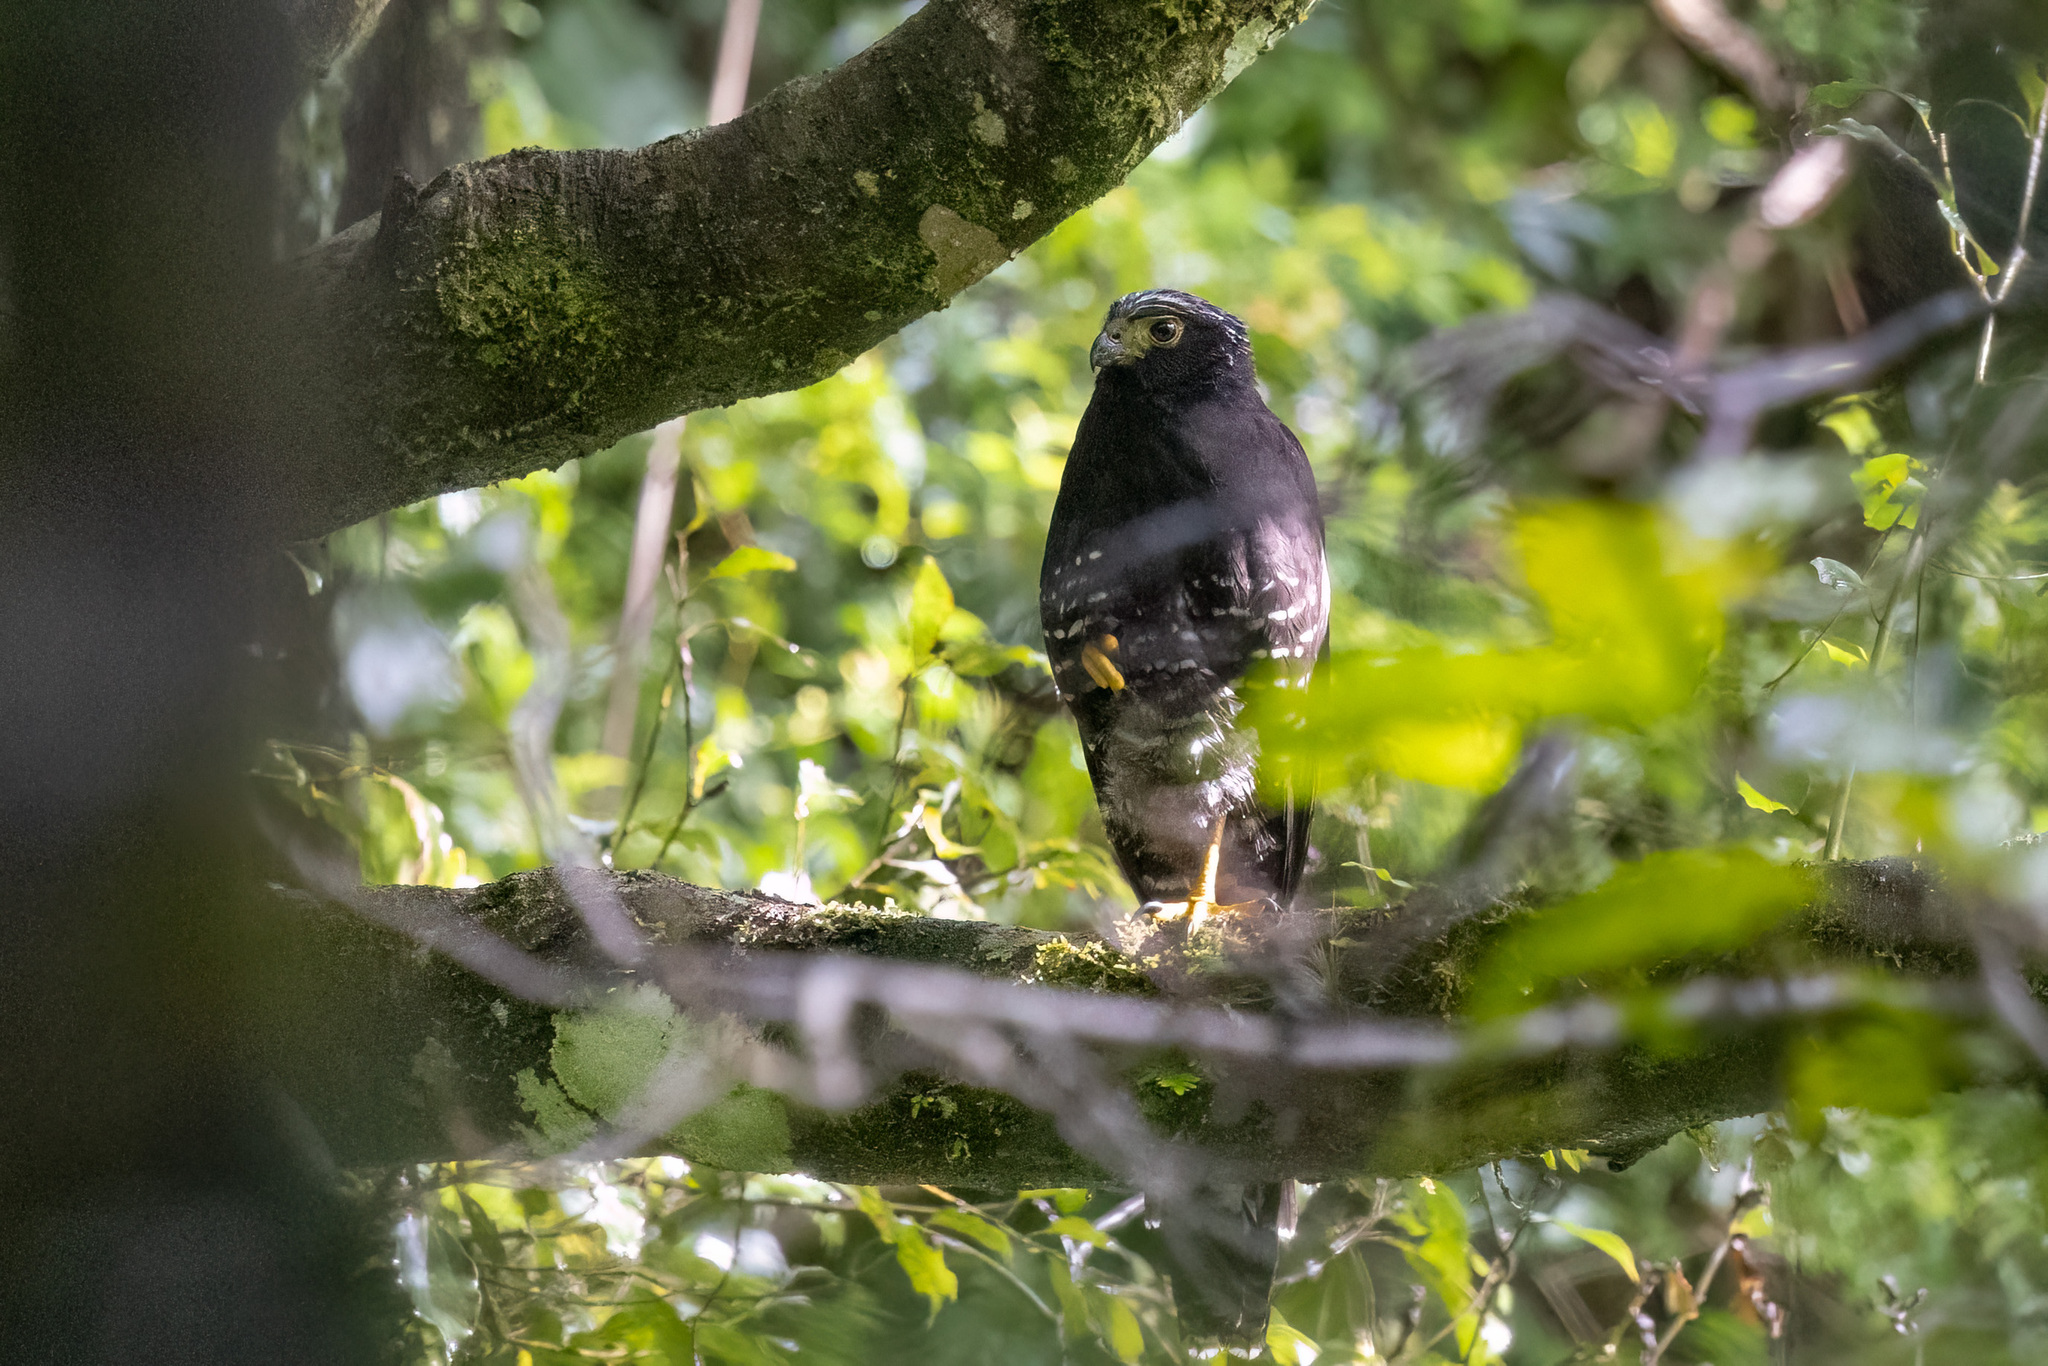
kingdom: Animalia
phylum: Chordata
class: Aves
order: Falconiformes
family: Falconidae
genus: Micrastur
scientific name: Micrastur semitorquatus
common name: Collared forest-falcon
